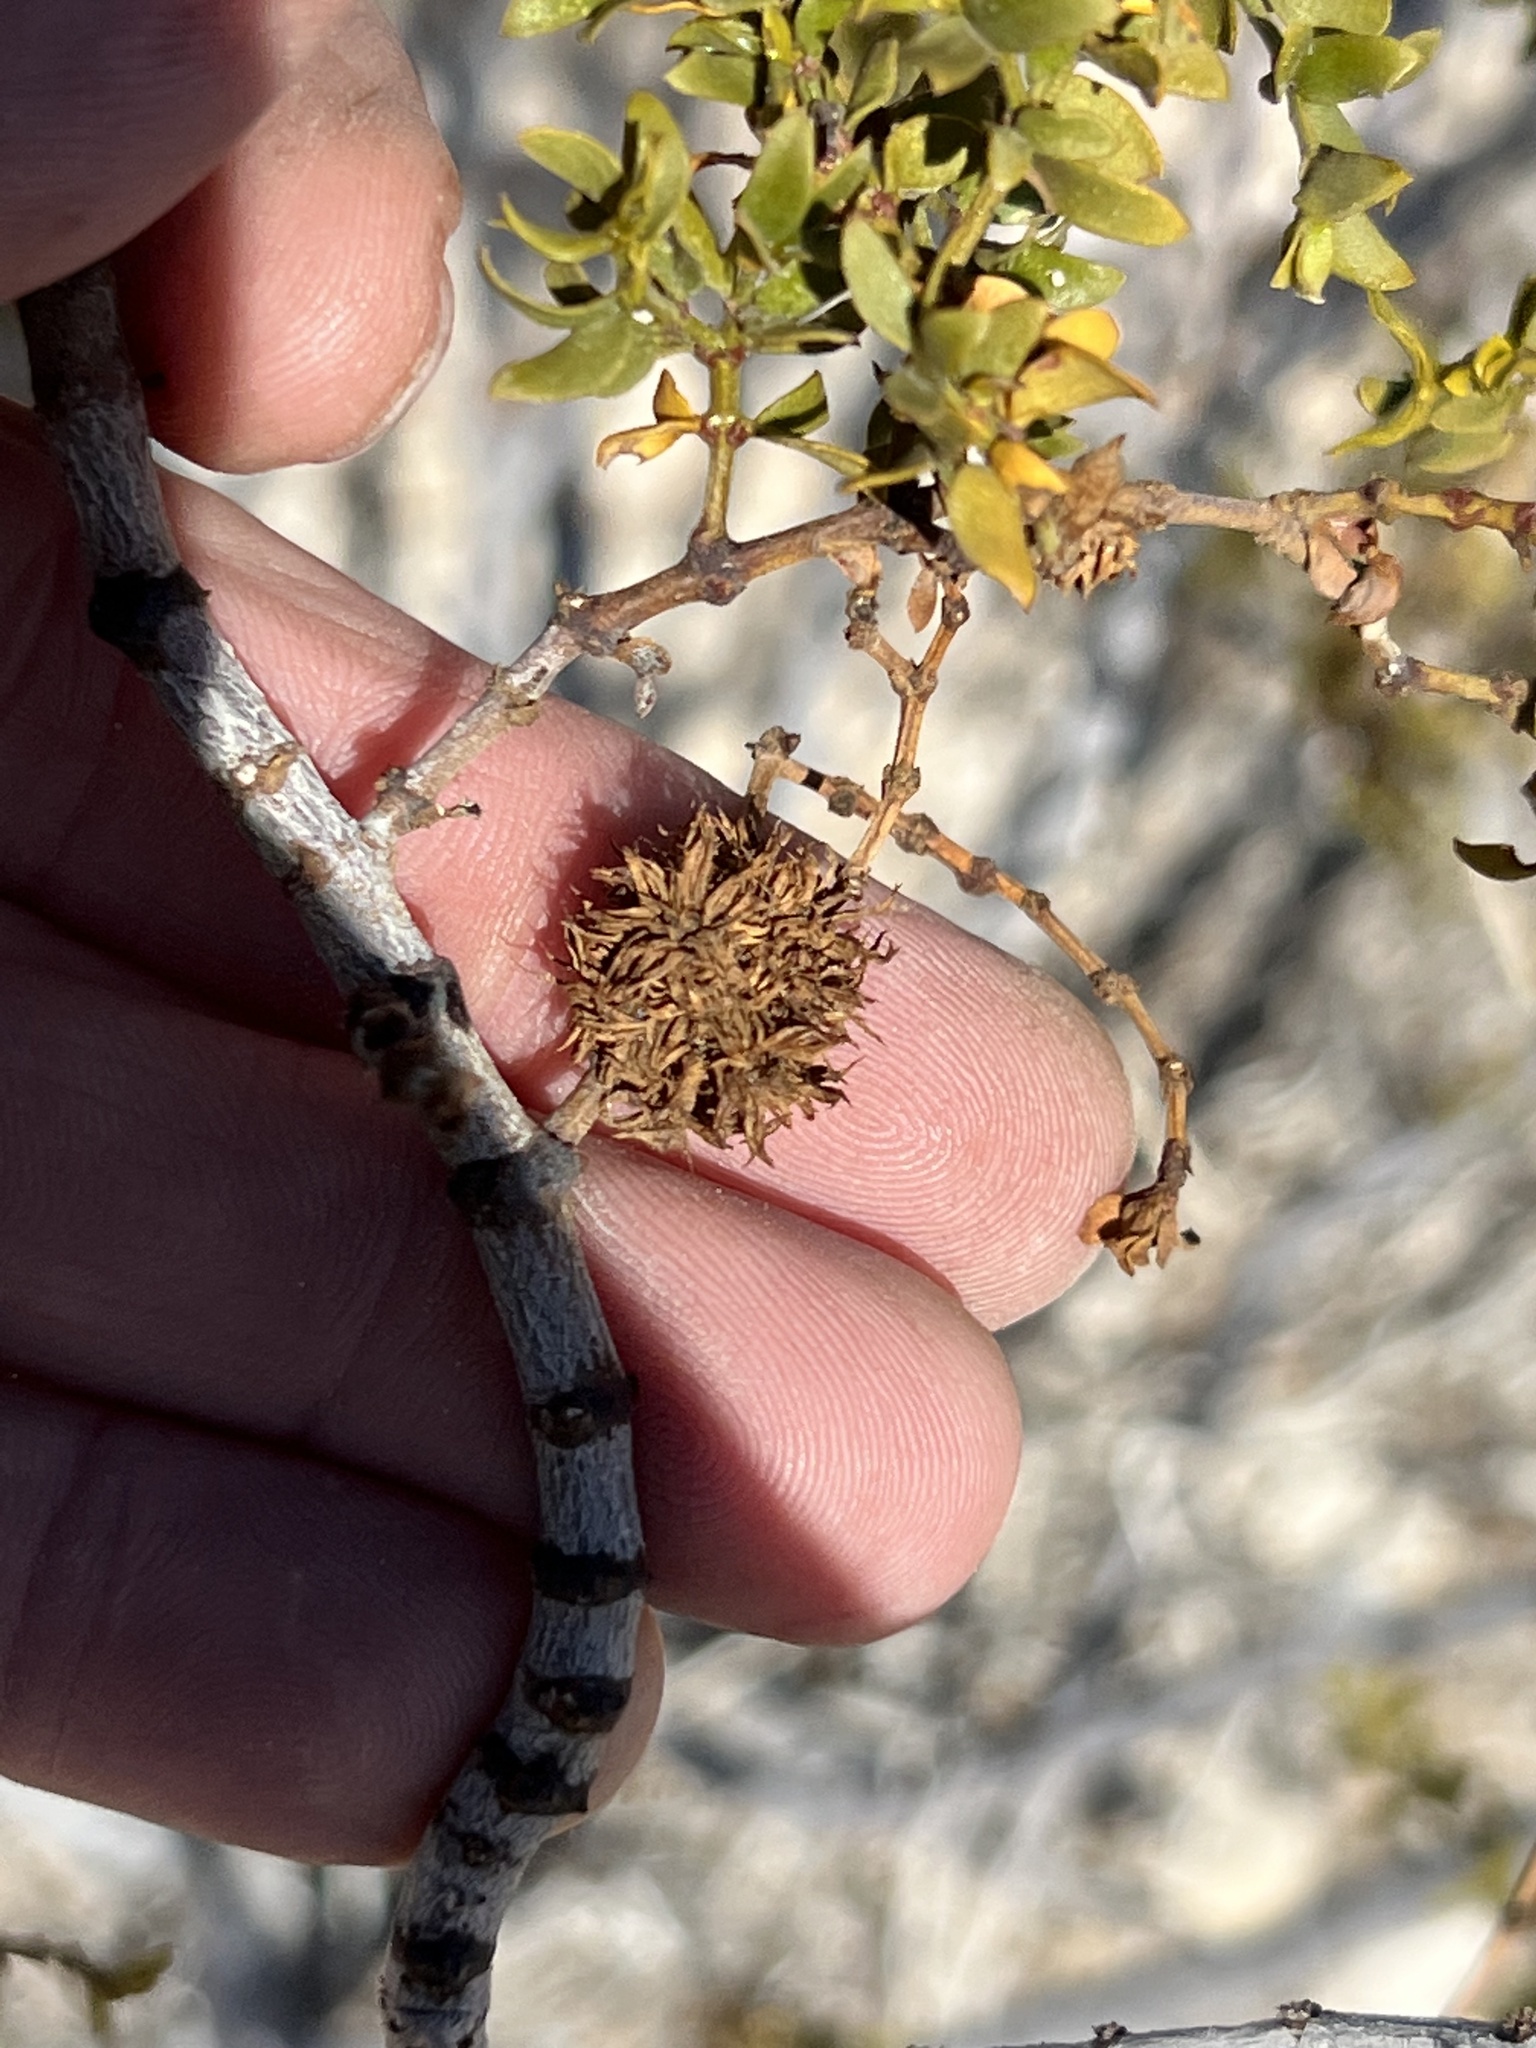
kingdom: Animalia
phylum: Arthropoda
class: Insecta
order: Diptera
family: Cecidomyiidae
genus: Asphondylia
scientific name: Asphondylia auripila
